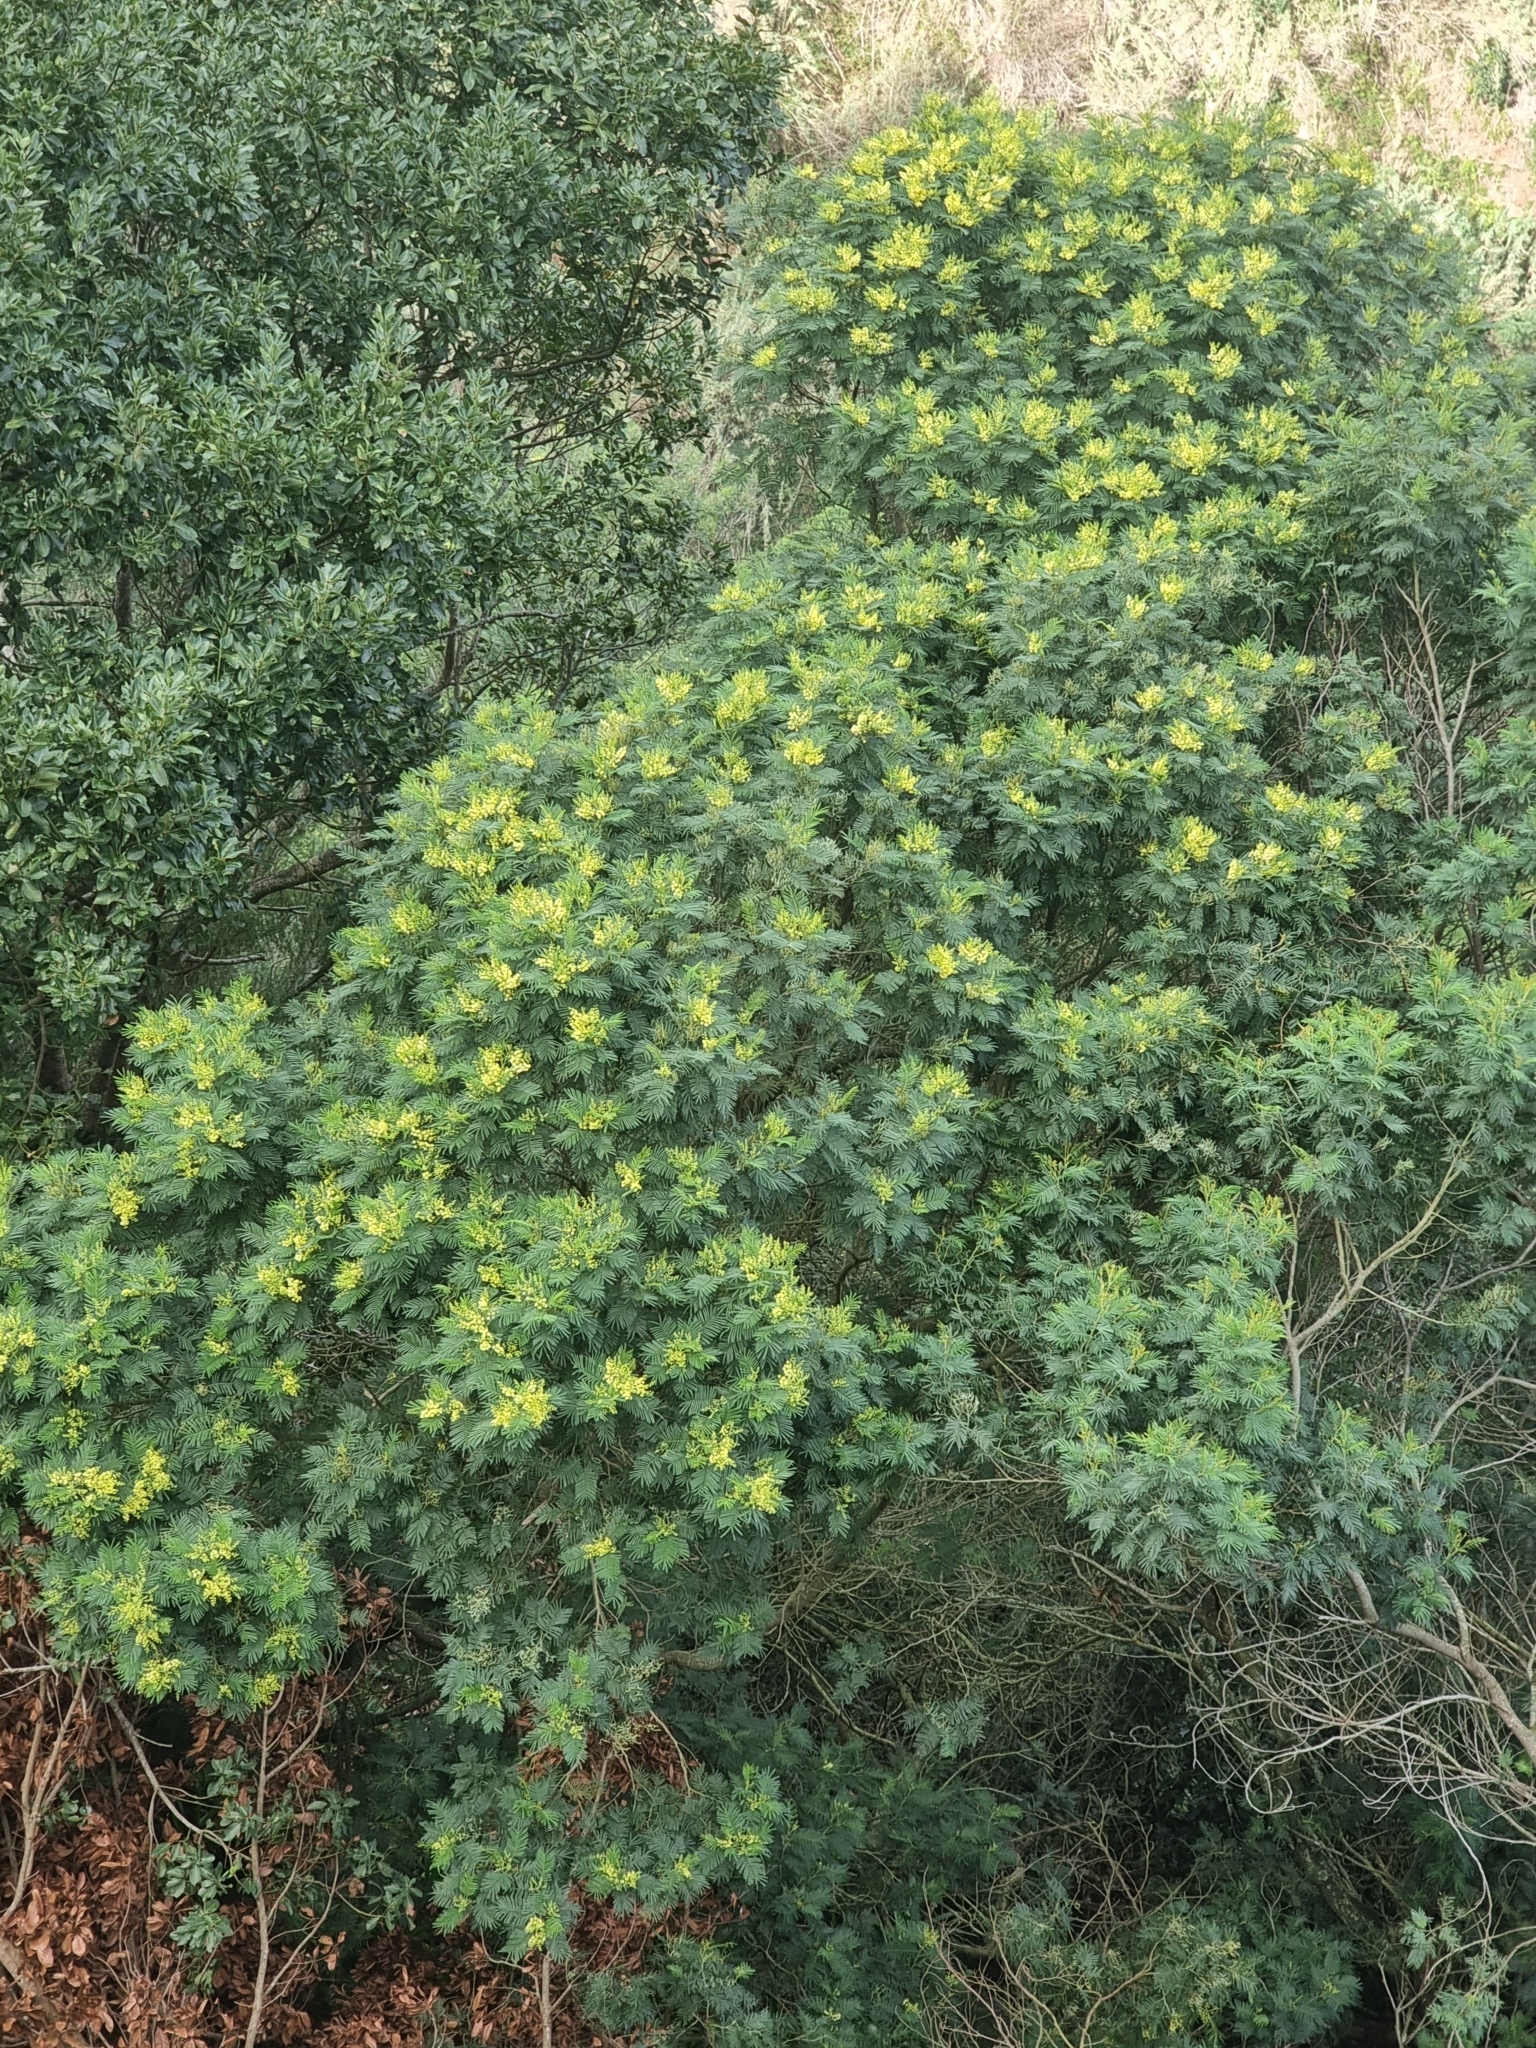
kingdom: Plantae
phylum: Tracheophyta
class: Magnoliopsida
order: Fabales
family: Fabaceae
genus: Acacia
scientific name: Acacia mearnsii
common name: Black wattle
